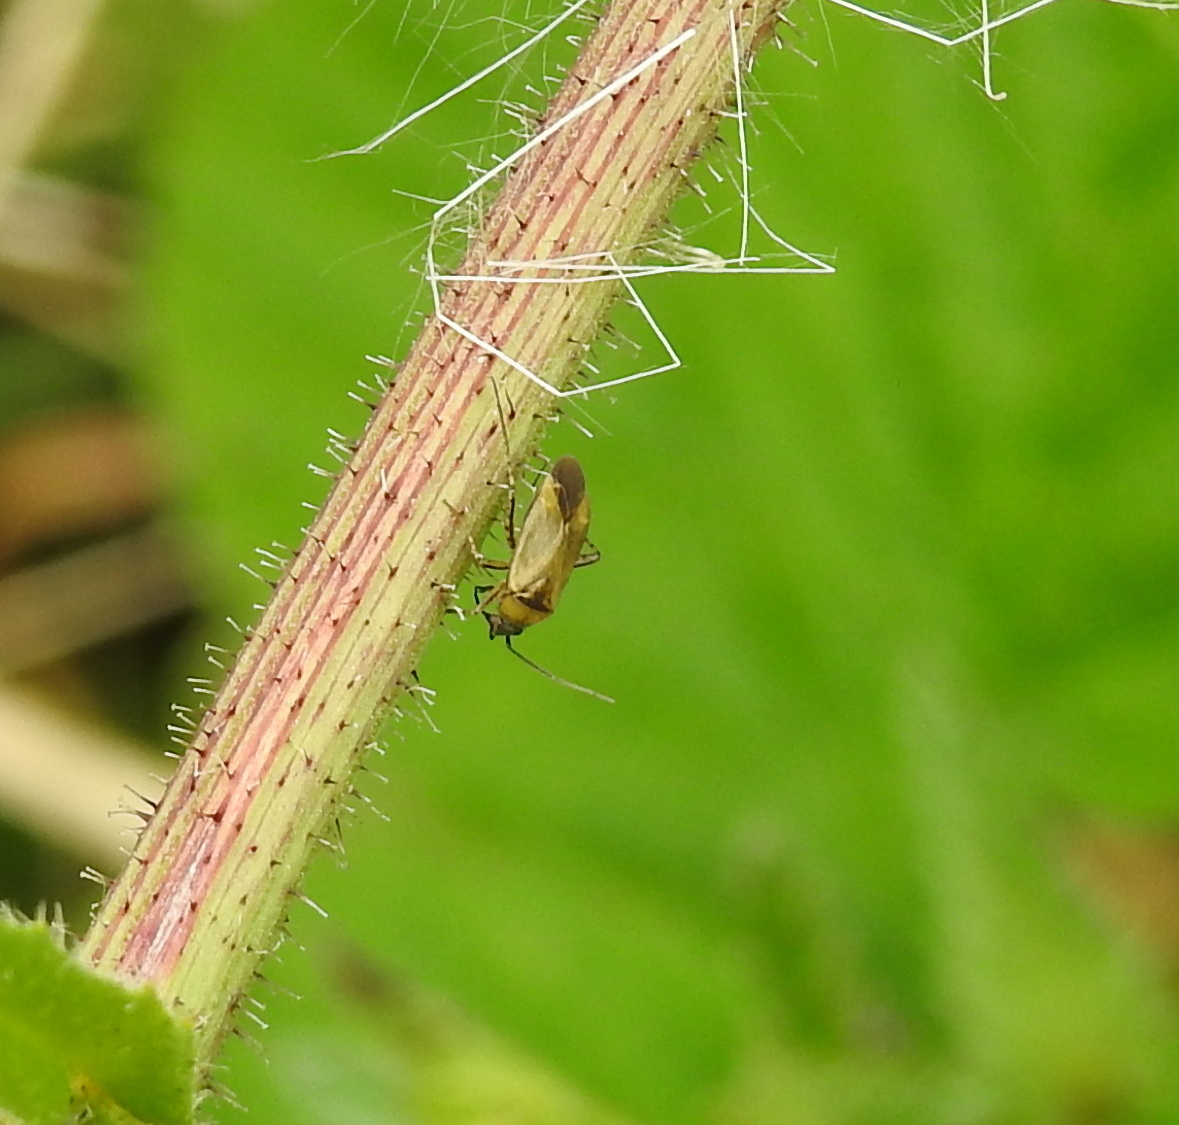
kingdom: Animalia
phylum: Arthropoda
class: Insecta
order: Hemiptera
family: Miridae
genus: Plagiognathus
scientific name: Plagiognathus arbustorum
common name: Plant bug
